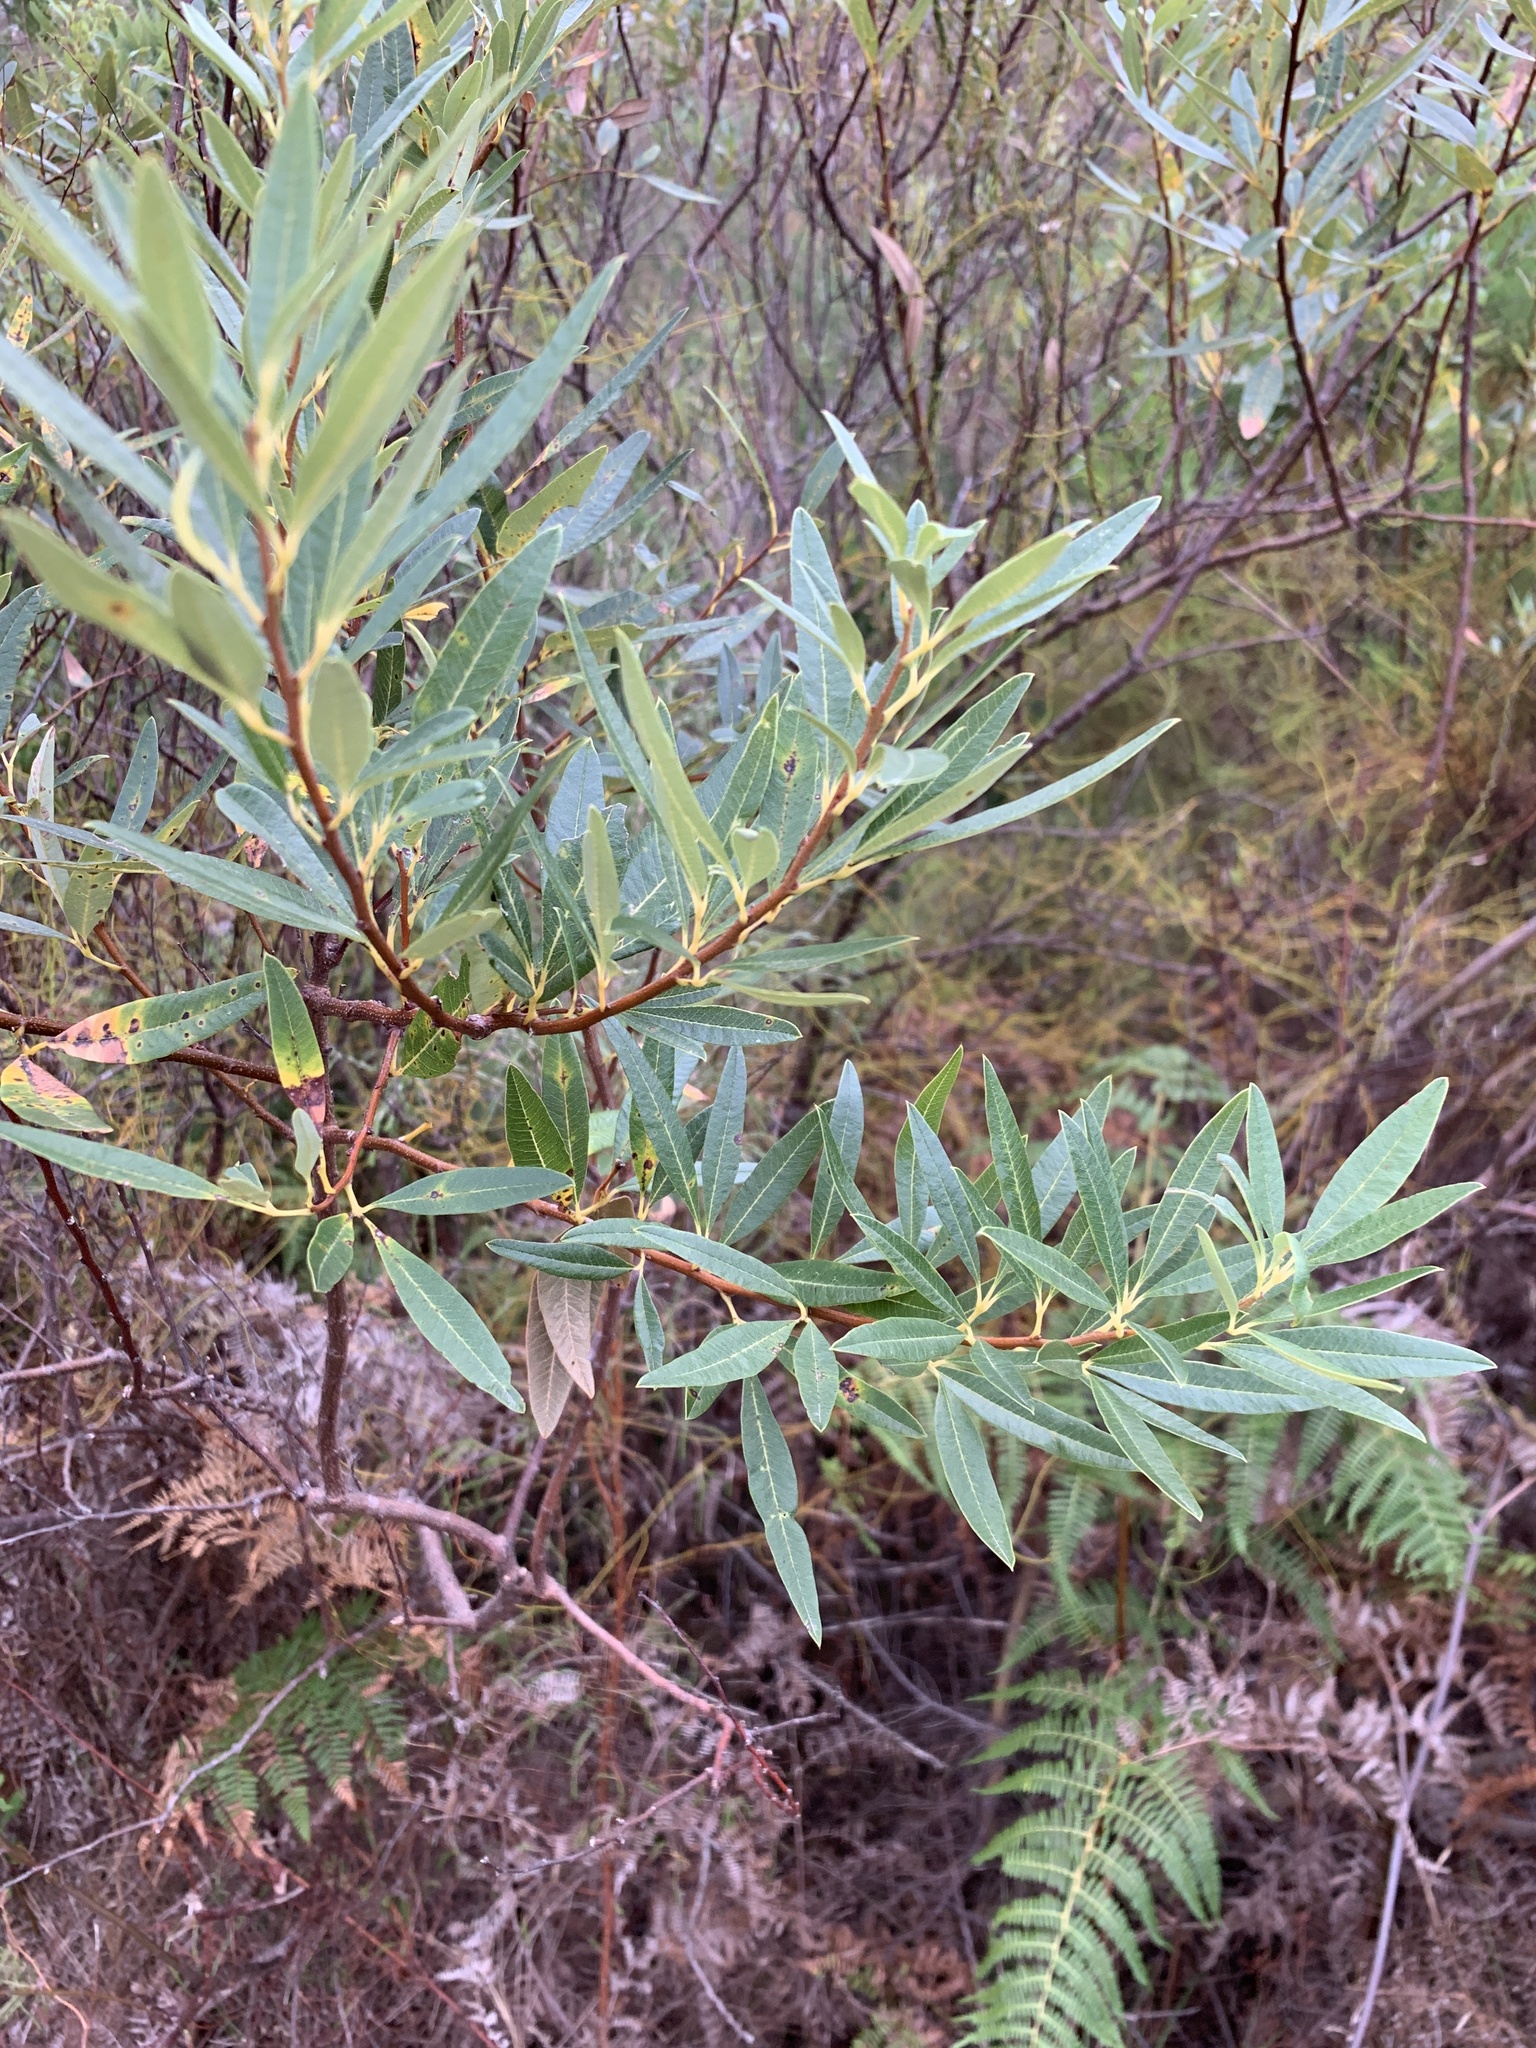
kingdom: Plantae
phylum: Tracheophyta
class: Magnoliopsida
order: Sapindales
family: Anacardiaceae
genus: Searsia
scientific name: Searsia angustifolia
